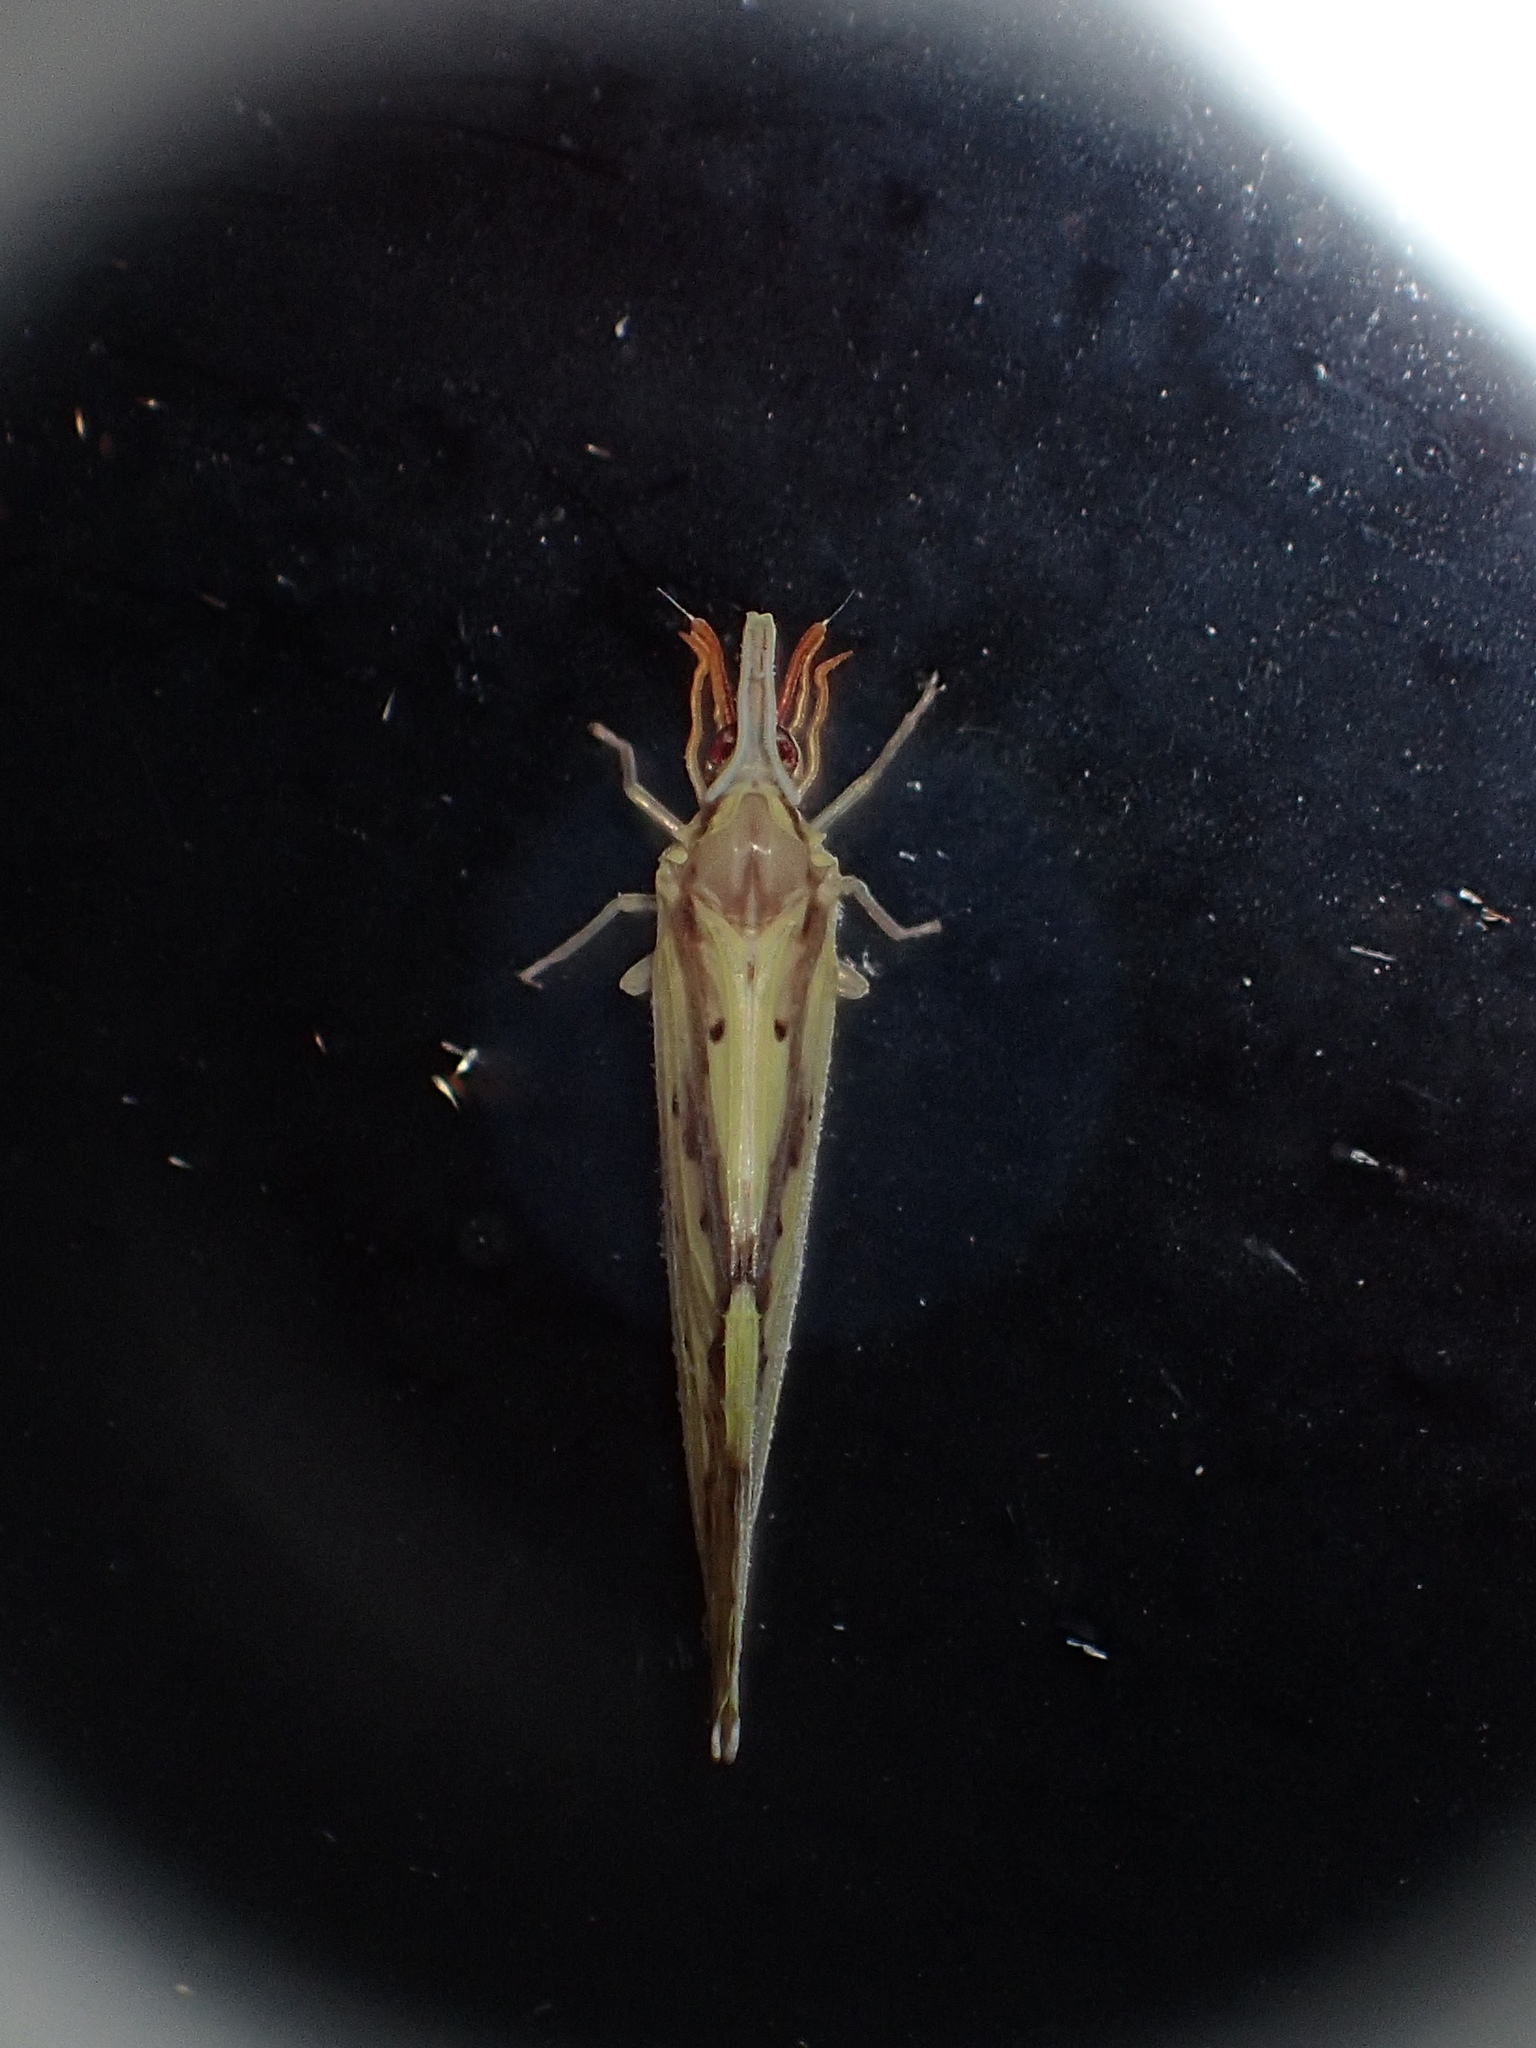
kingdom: Animalia
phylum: Arthropoda
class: Insecta
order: Hemiptera
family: Derbidae
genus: Otiocerus
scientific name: Otiocerus wolfii
